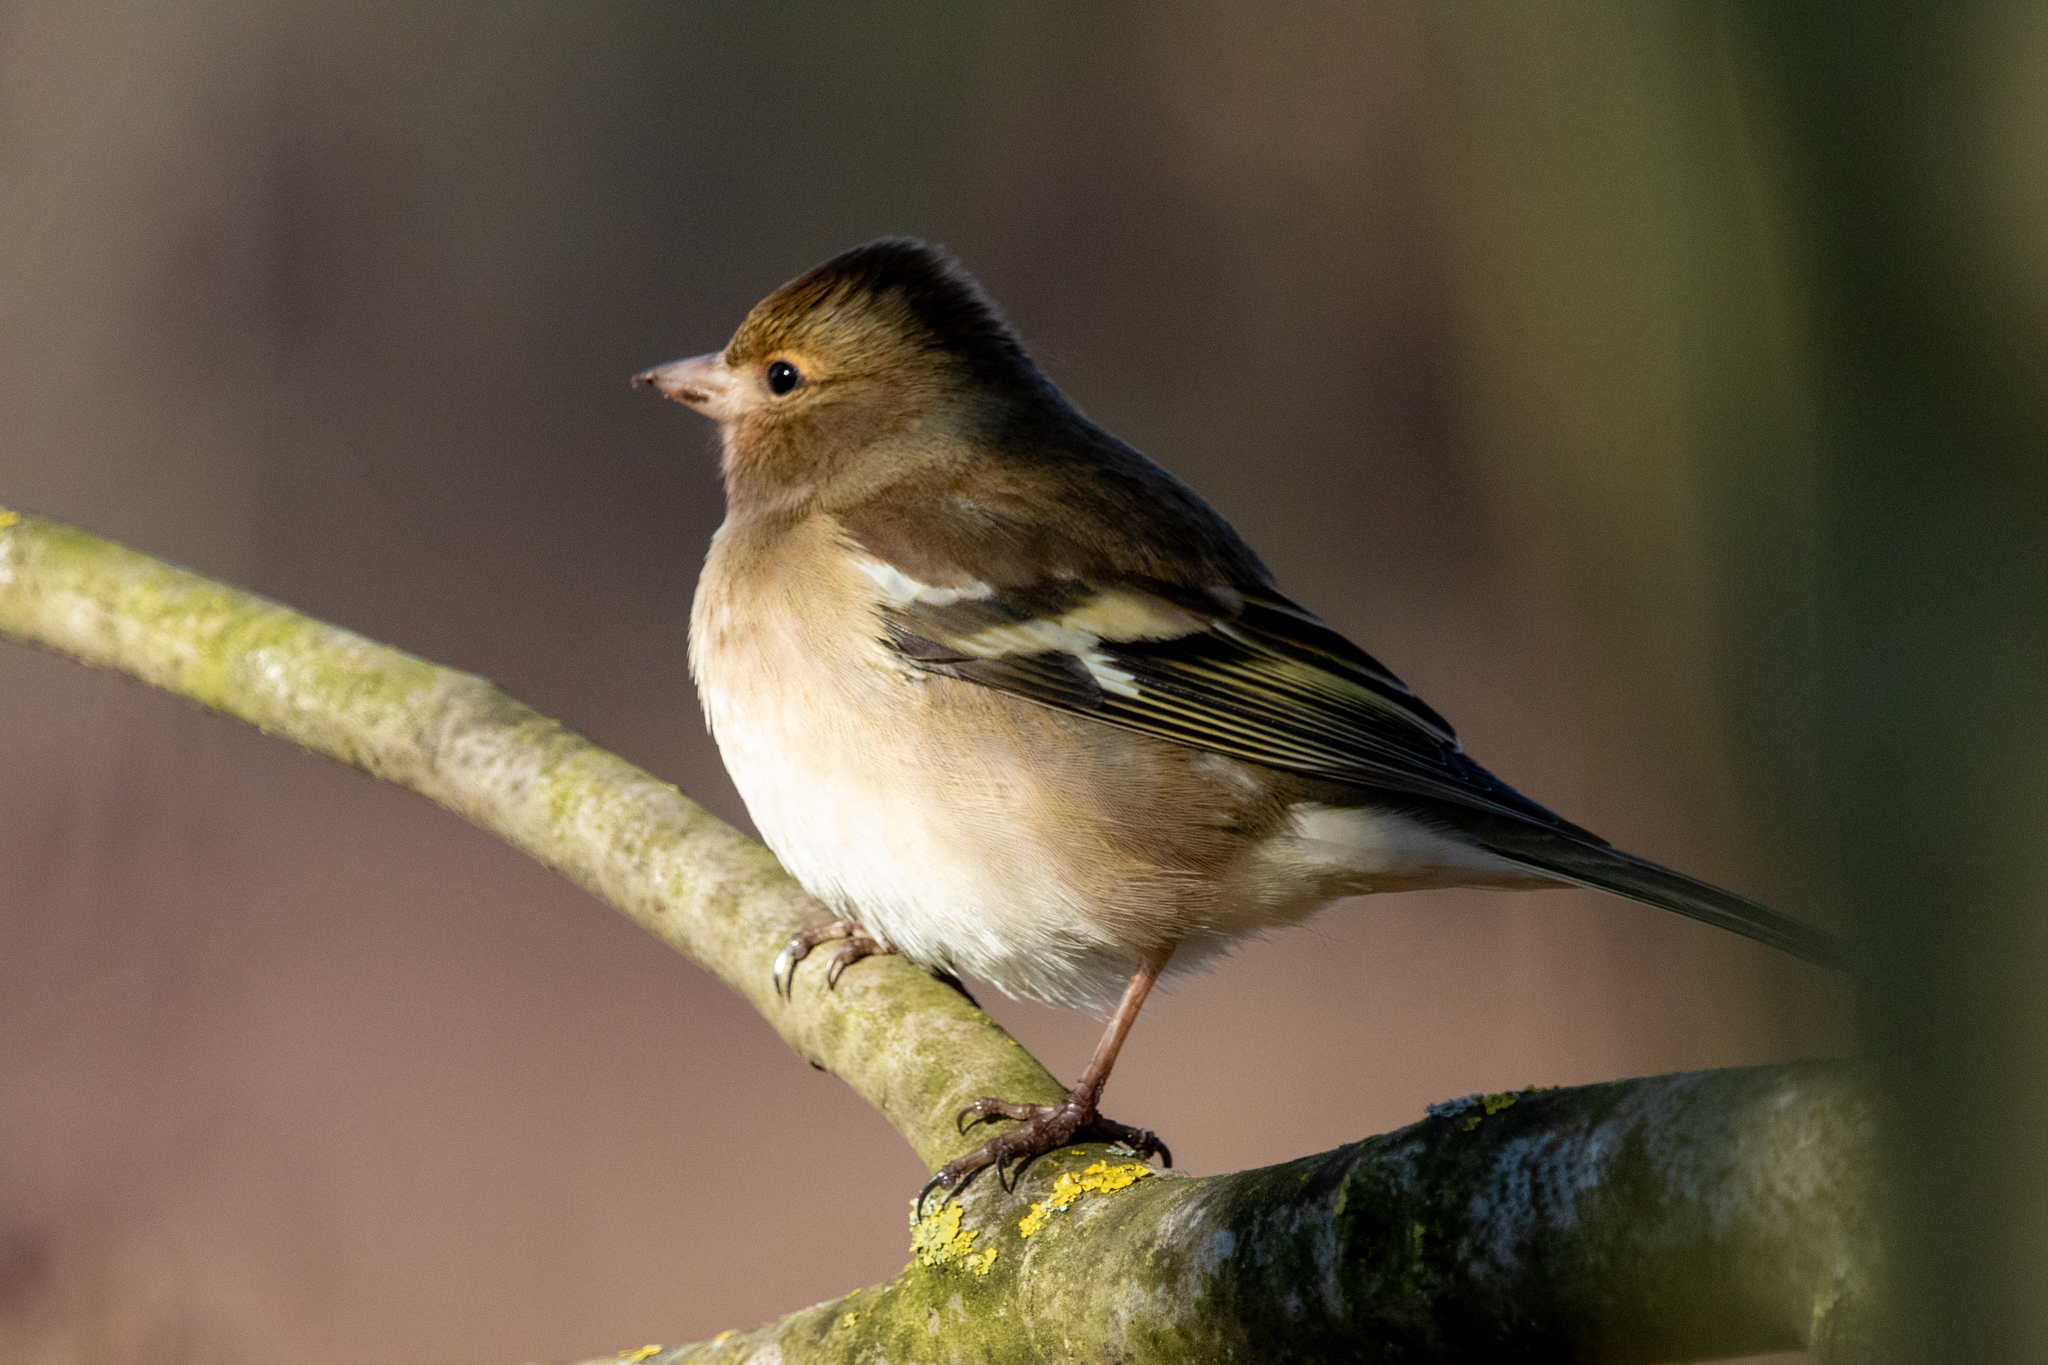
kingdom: Animalia
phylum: Chordata
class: Aves
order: Passeriformes
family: Fringillidae
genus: Fringilla
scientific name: Fringilla coelebs
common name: Common chaffinch
